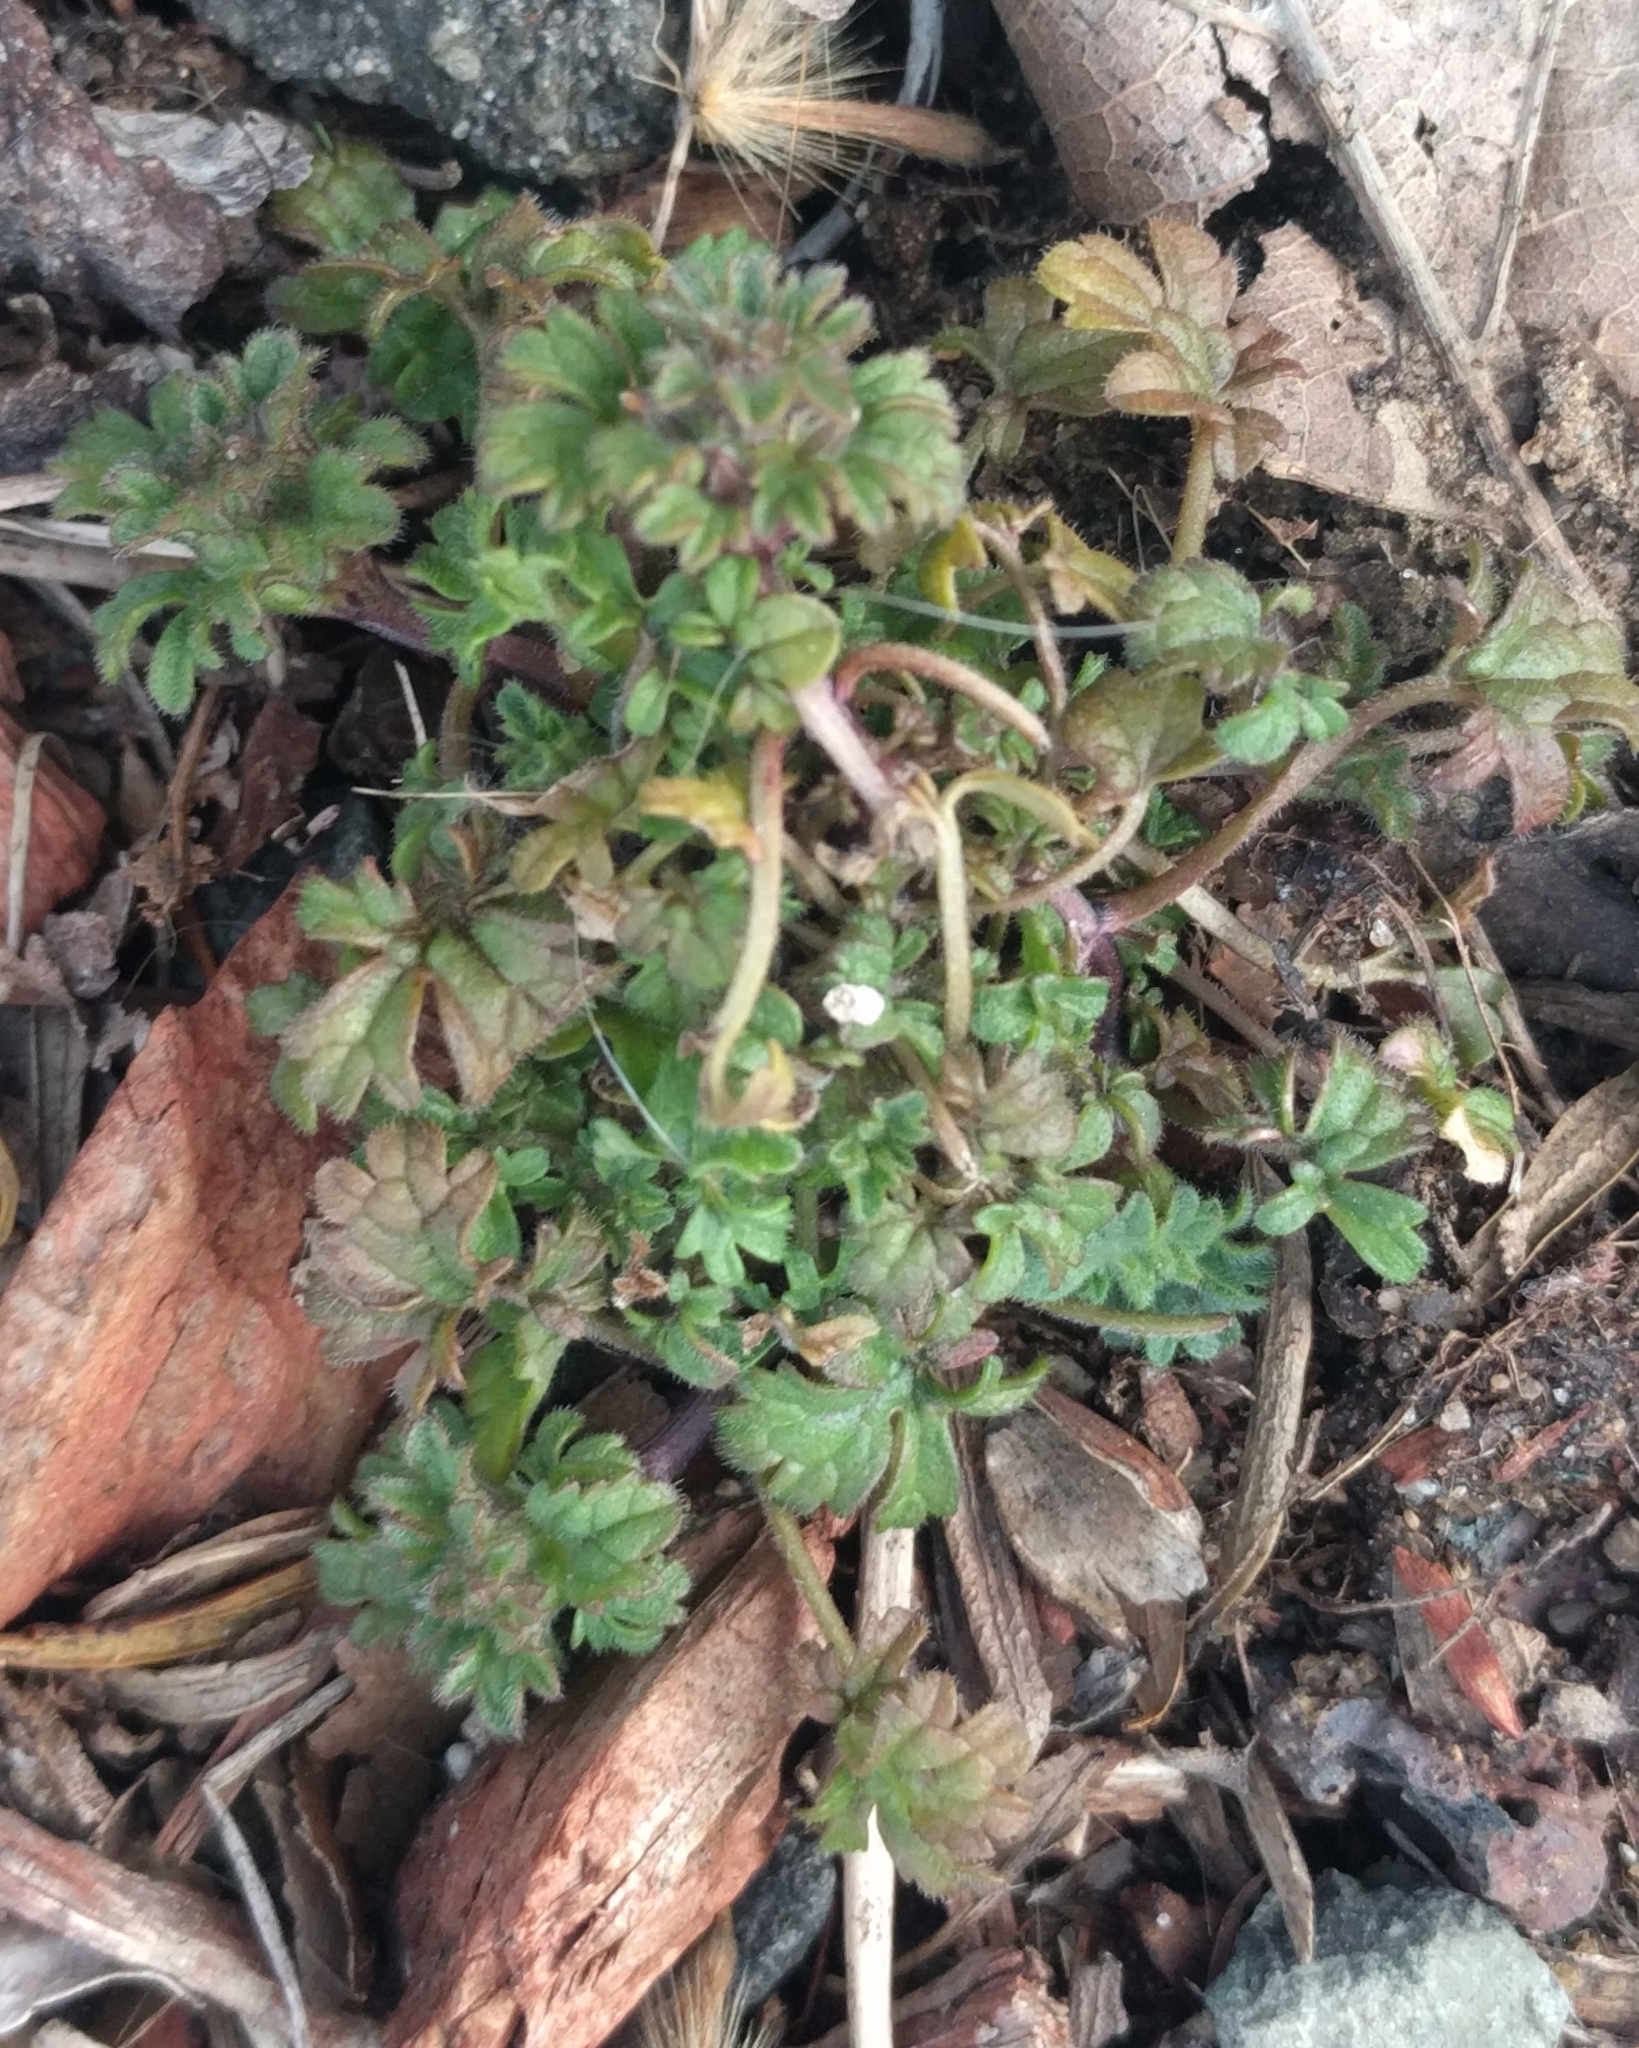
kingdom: Plantae
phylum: Tracheophyta
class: Magnoliopsida
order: Lamiales
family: Lamiaceae
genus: Lamium
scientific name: Lamium amplexicaule
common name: Henbit dead-nettle
